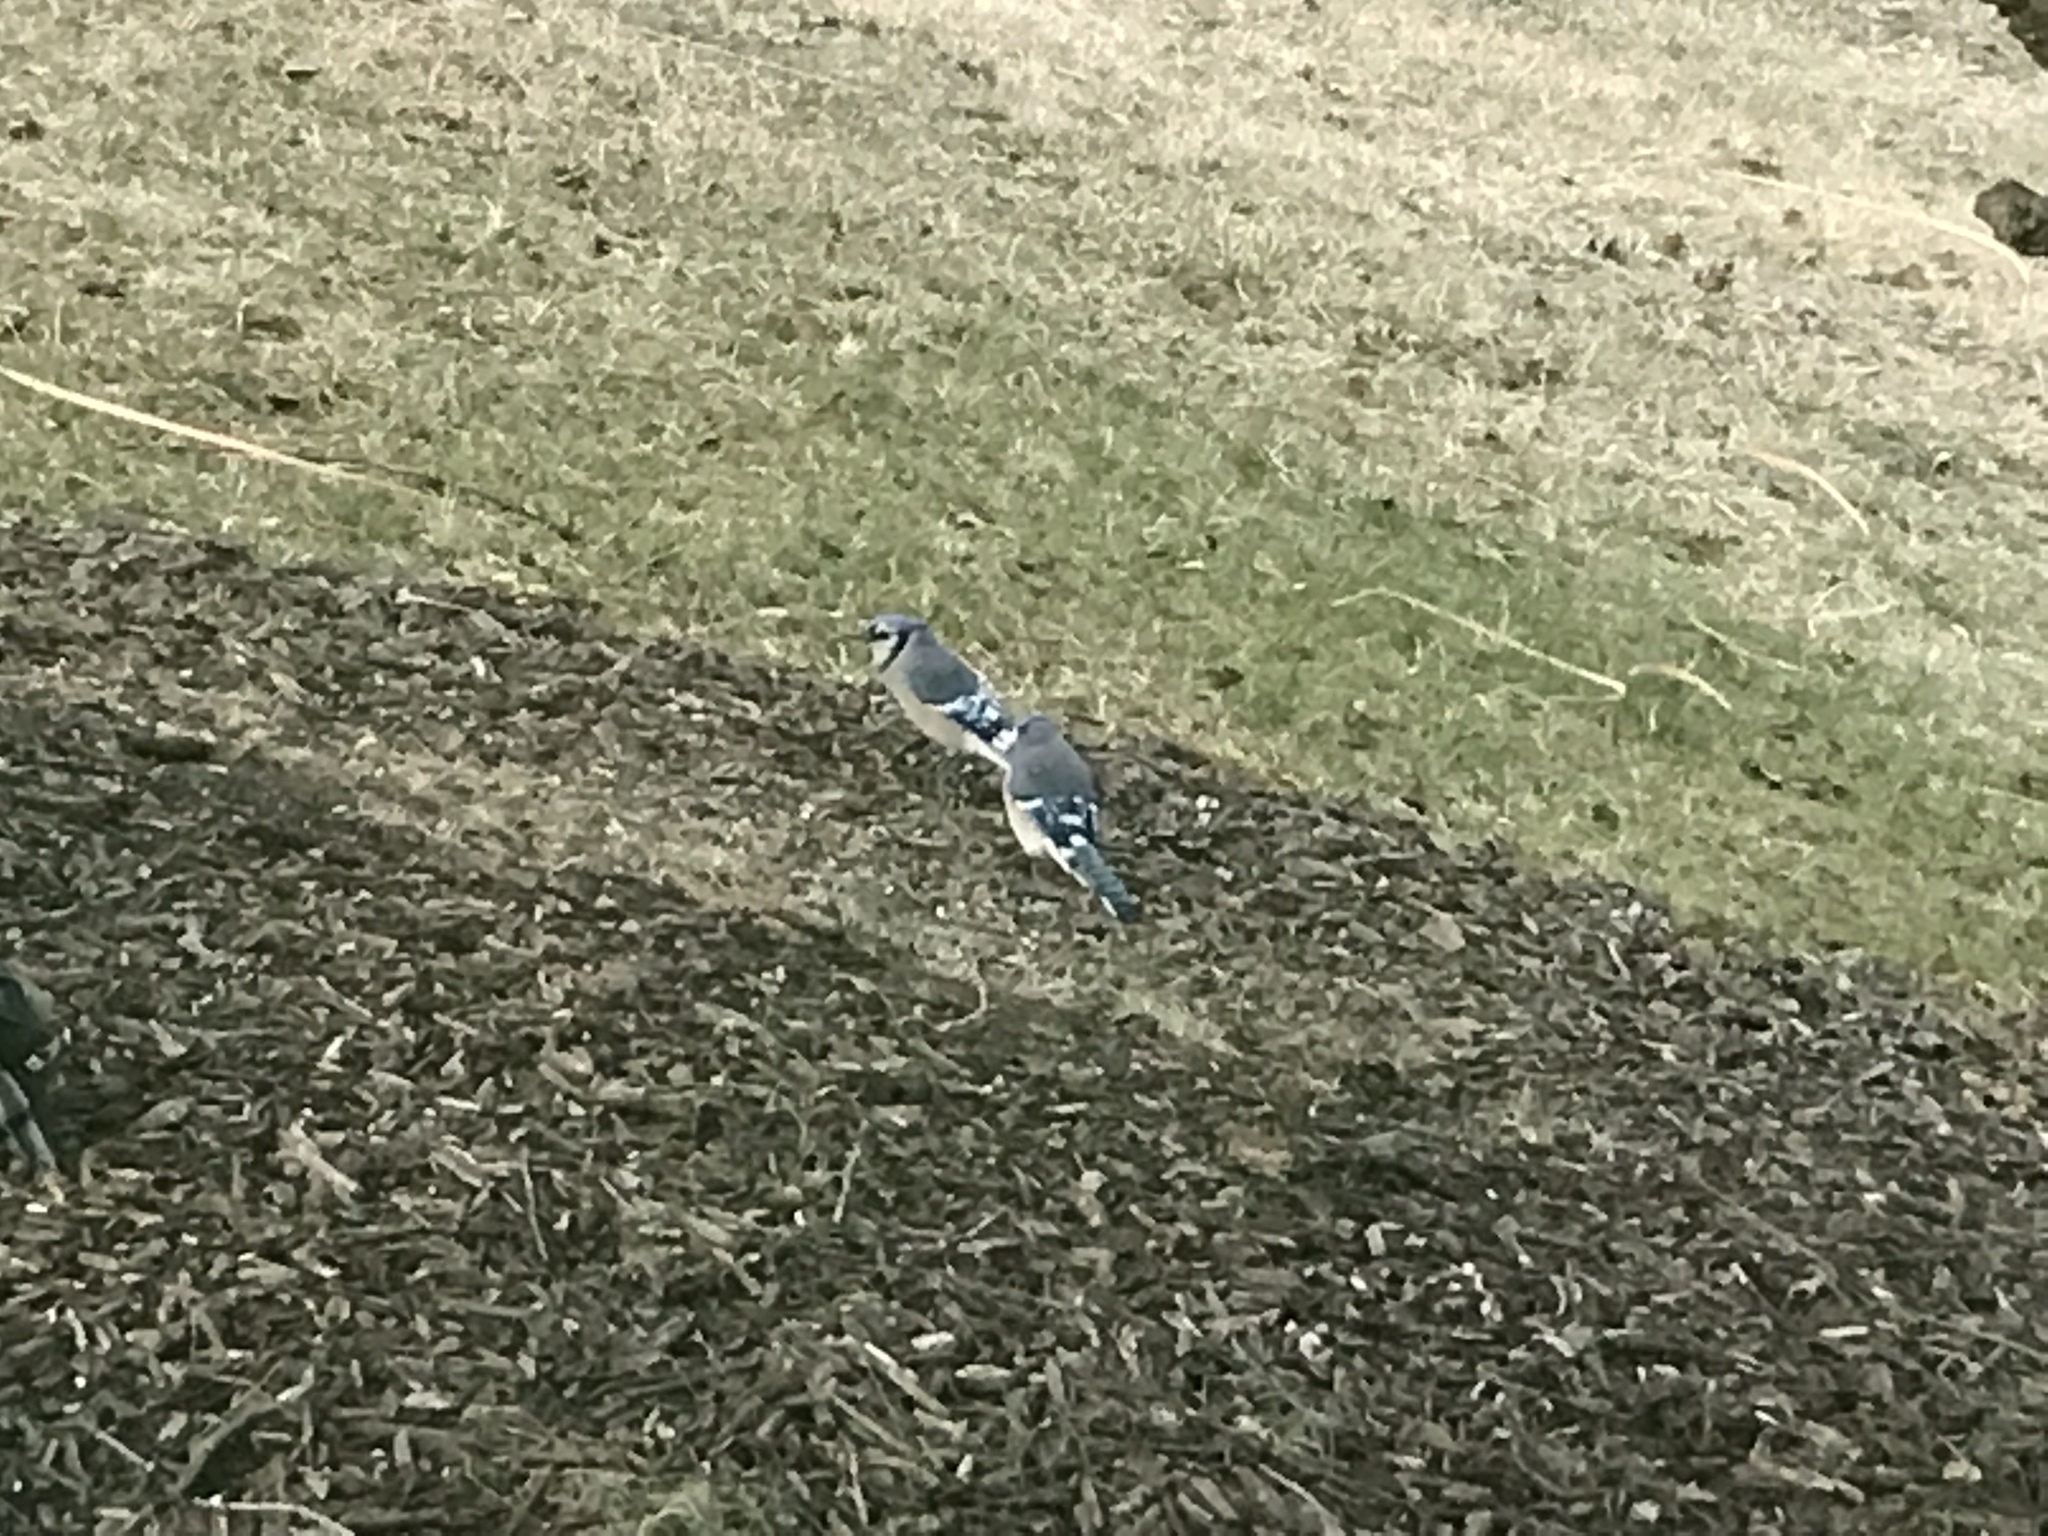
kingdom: Animalia
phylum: Chordata
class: Aves
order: Passeriformes
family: Corvidae
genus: Cyanocitta
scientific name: Cyanocitta cristata
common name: Blue jay
